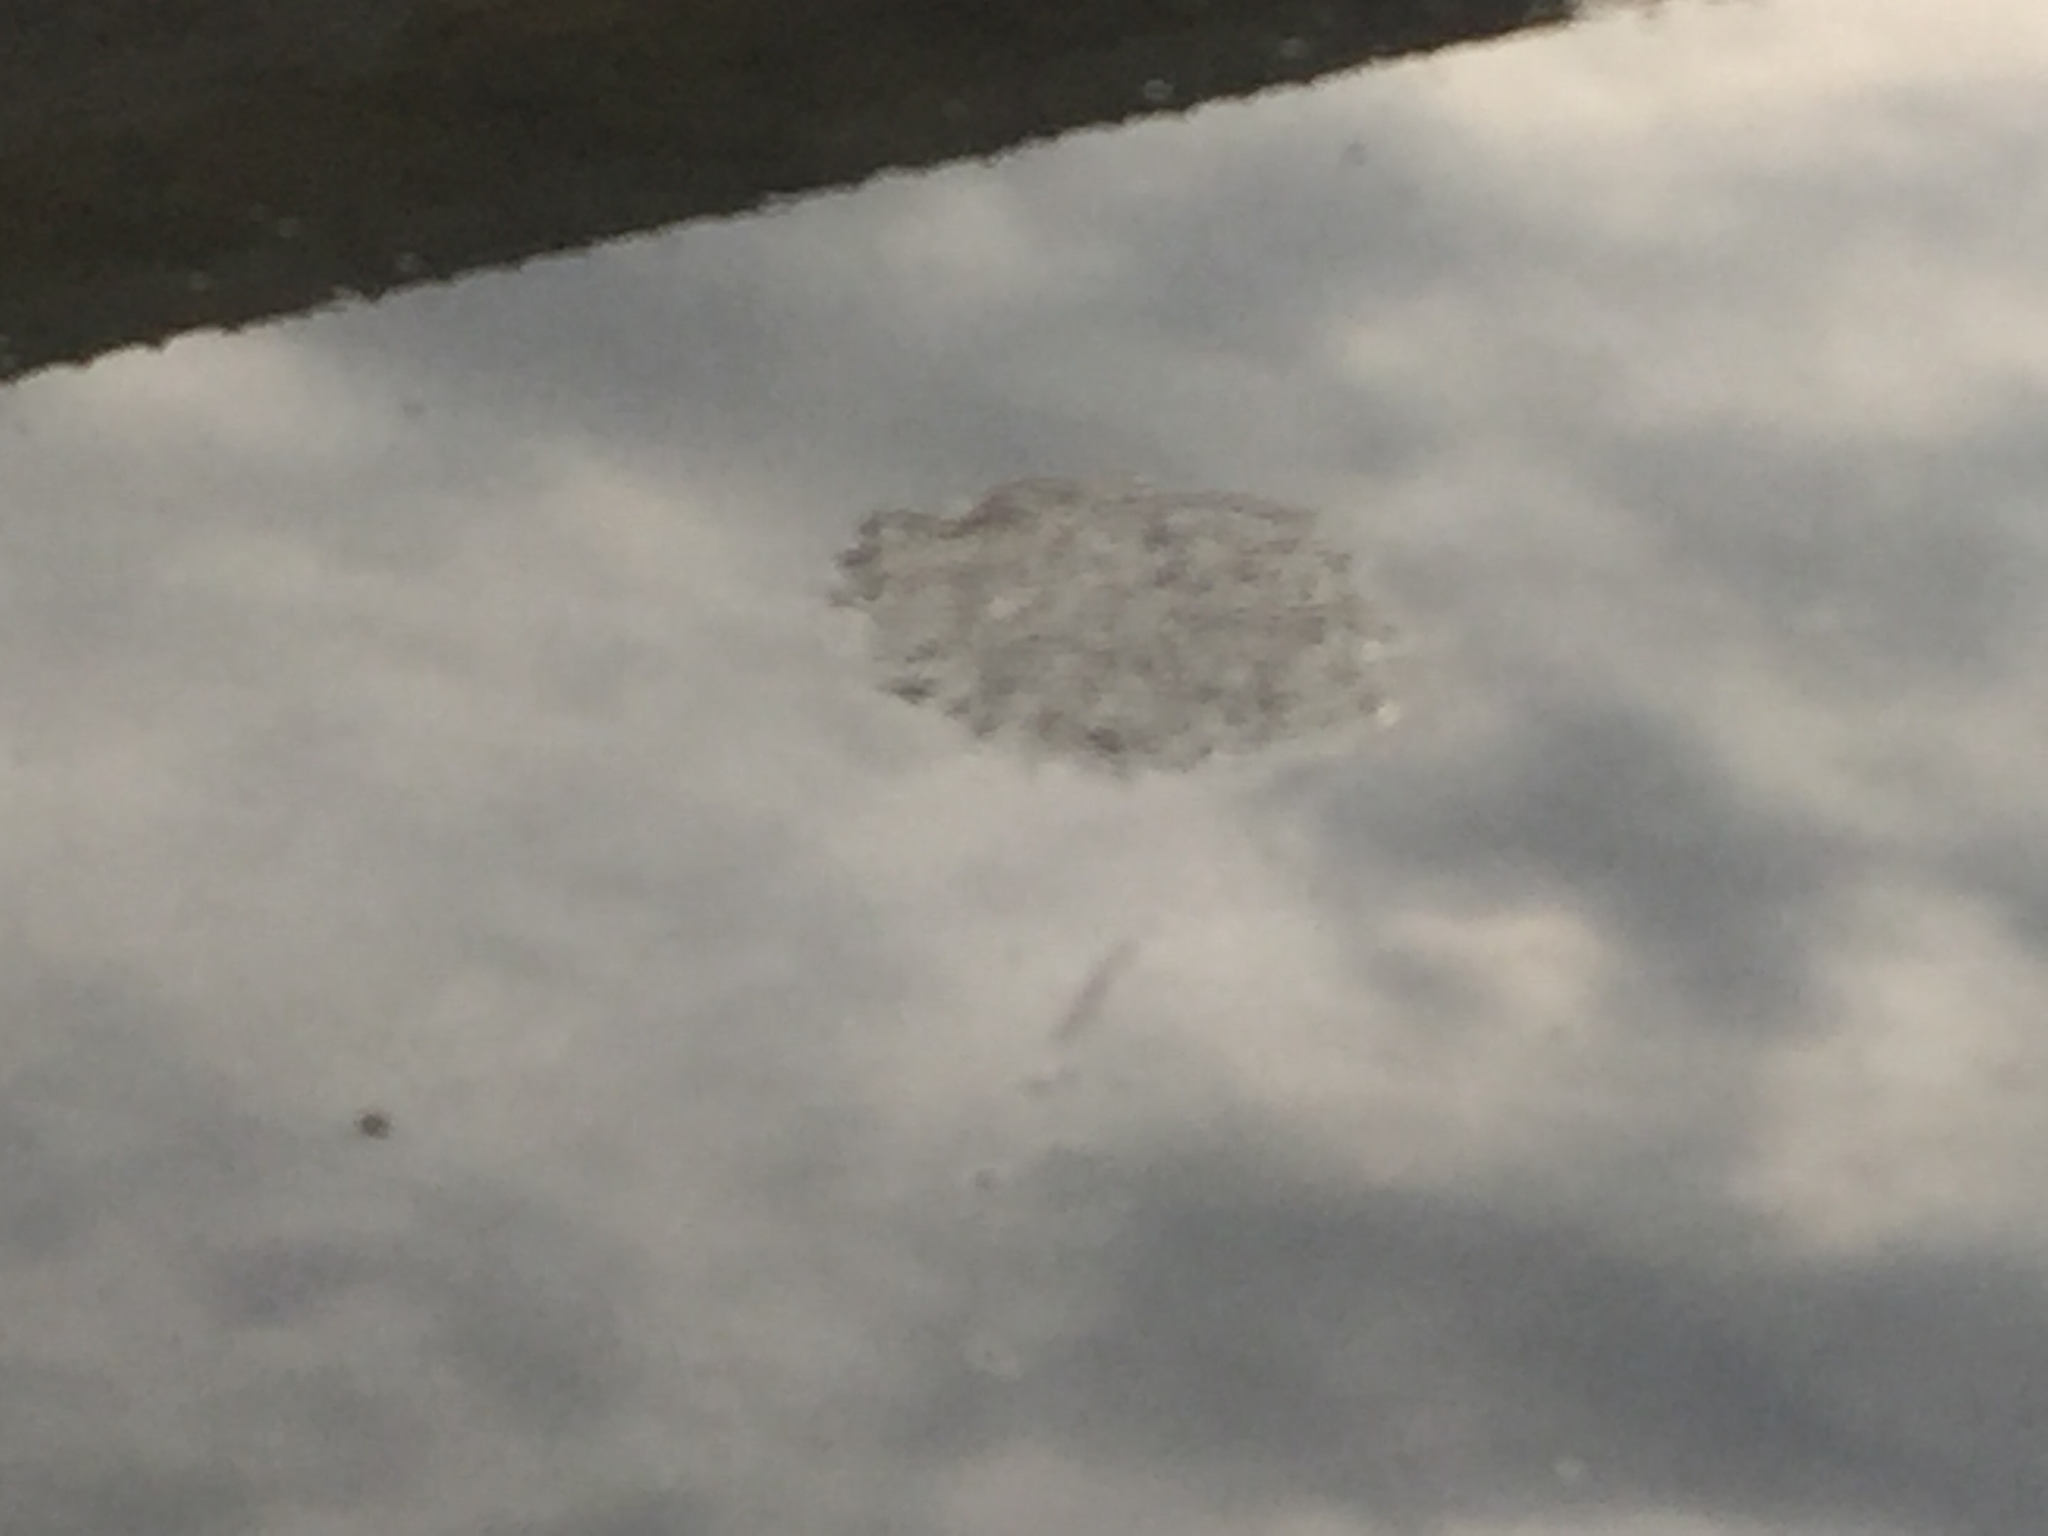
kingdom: Animalia
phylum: Chordata
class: Amphibia
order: Anura
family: Ranidae
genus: Rana
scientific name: Rana uenoi
